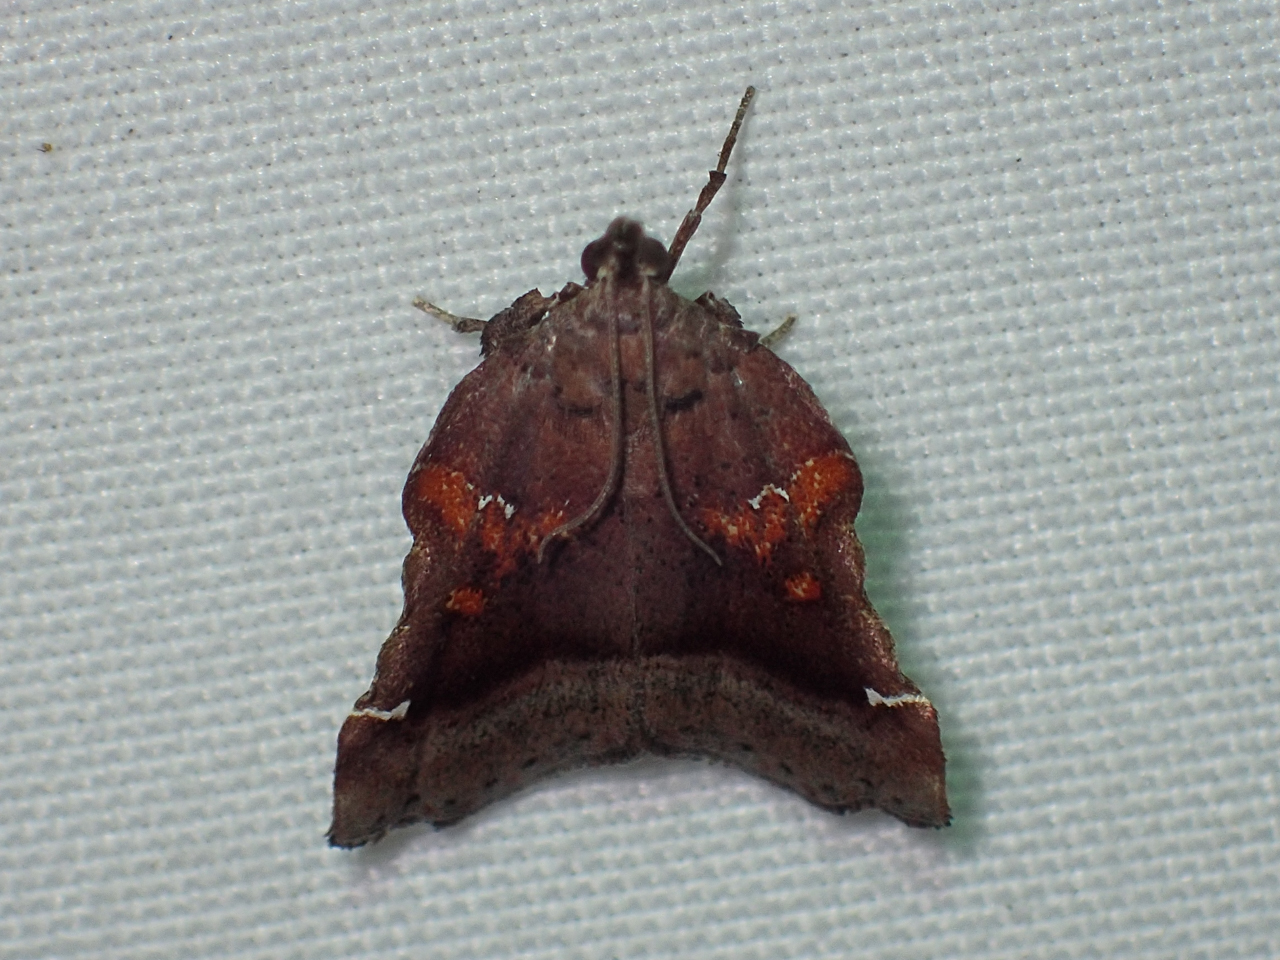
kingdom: Animalia
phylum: Arthropoda
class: Insecta
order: Lepidoptera
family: Pyralidae
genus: Clydonopteron
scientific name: Clydonopteron sacculana
